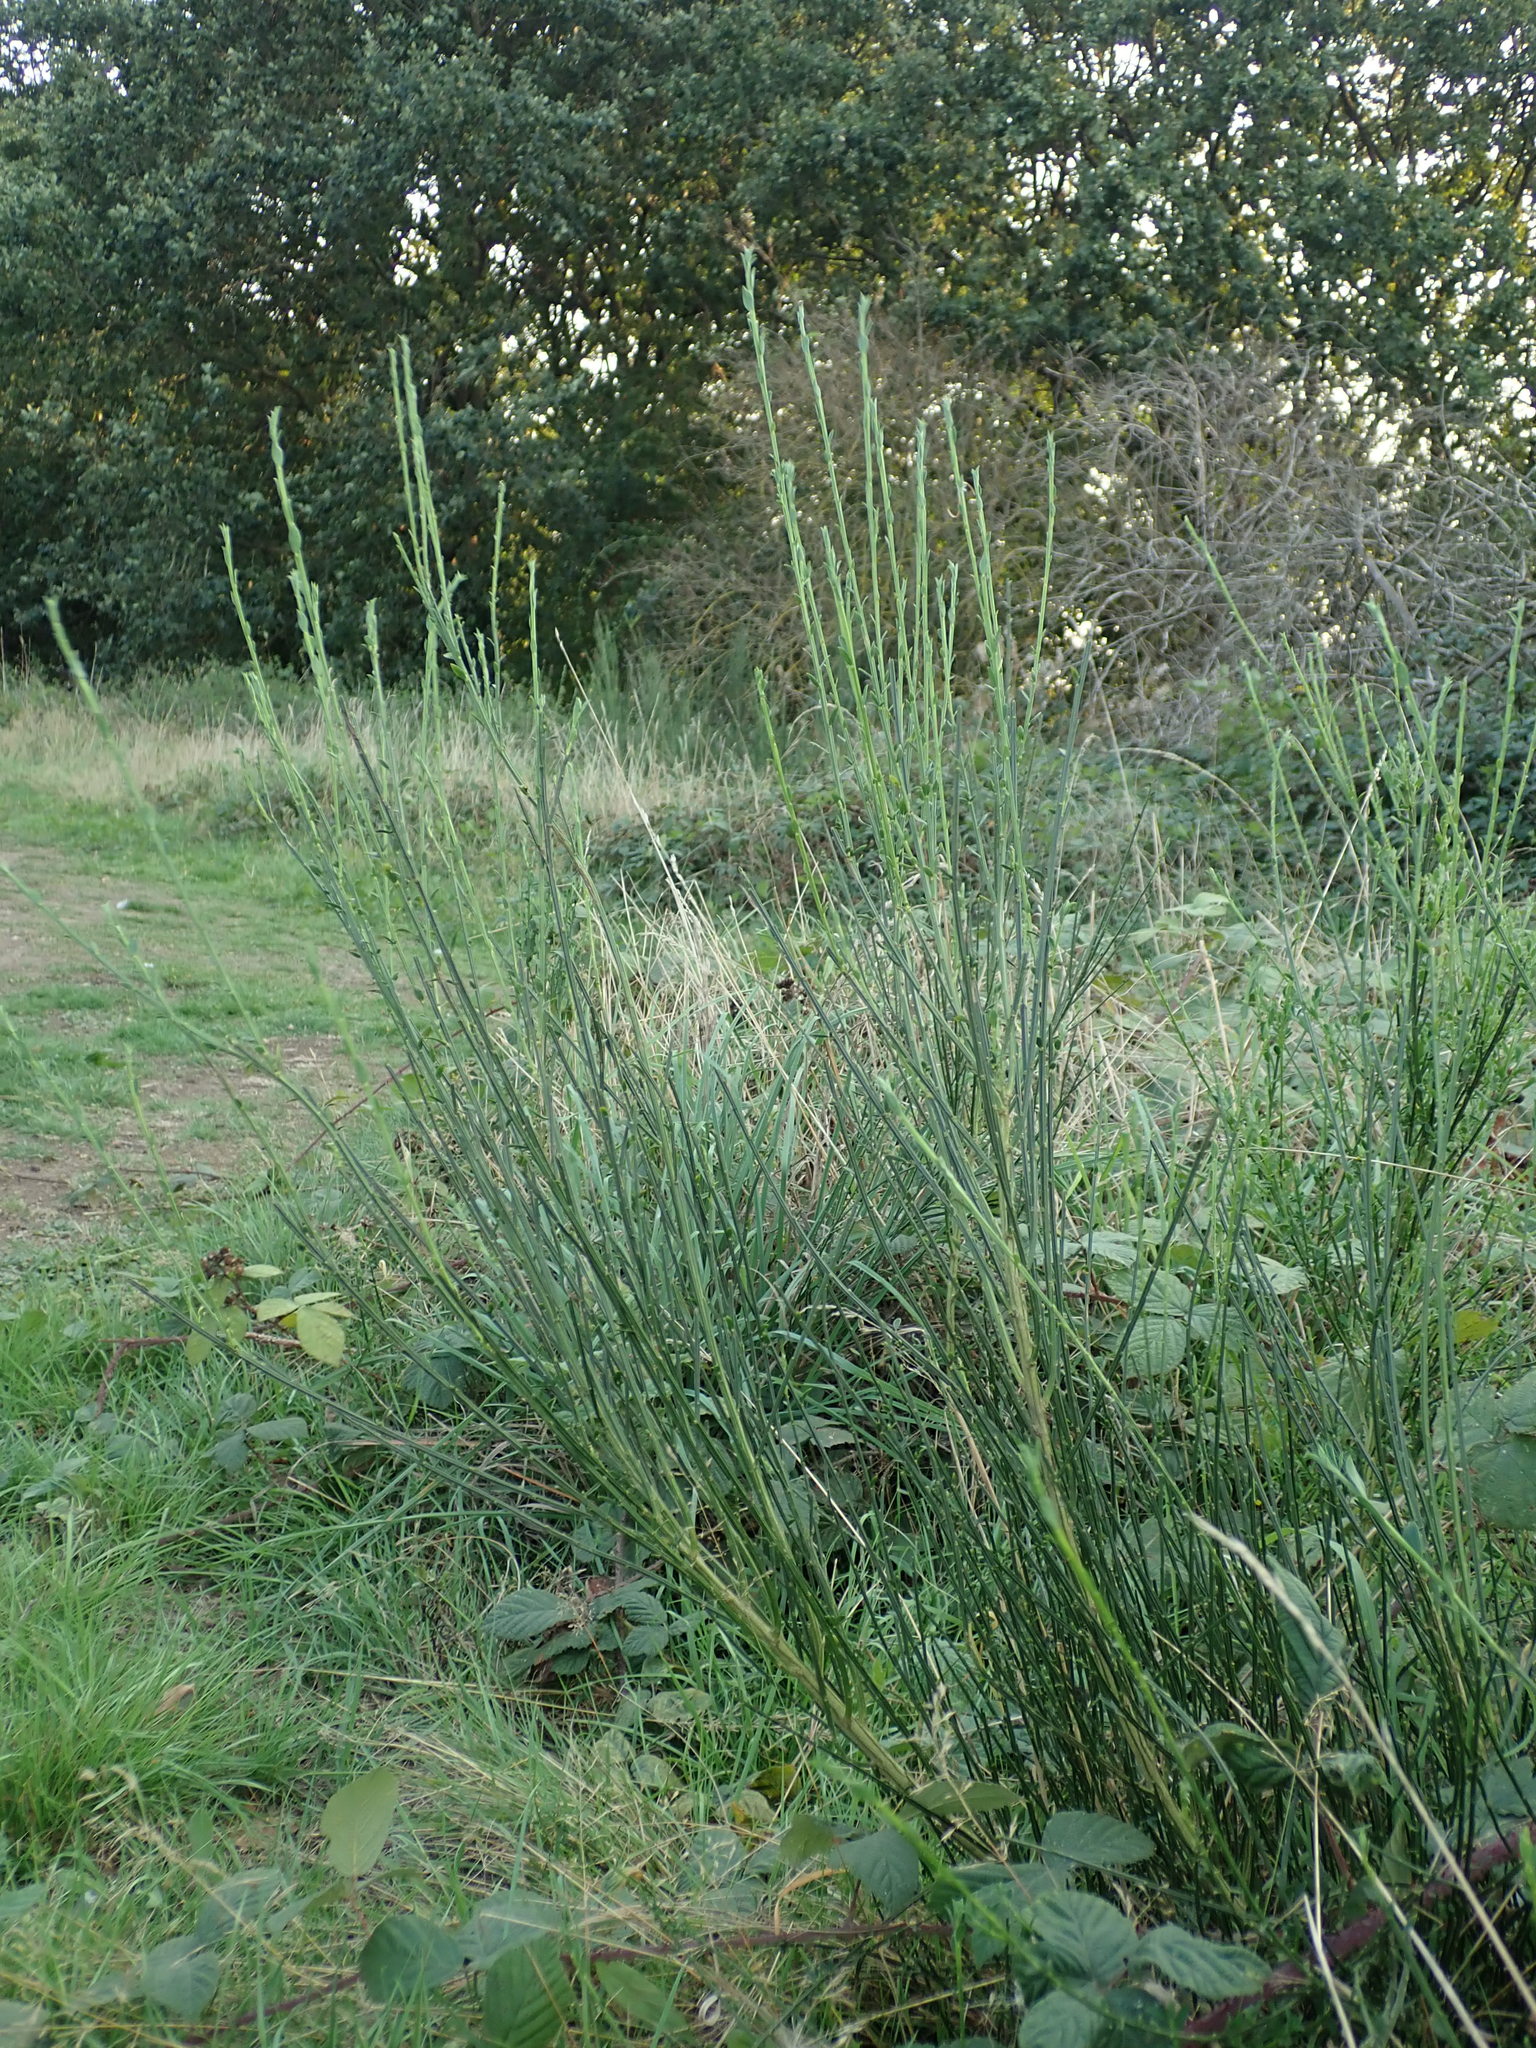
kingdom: Plantae
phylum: Tracheophyta
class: Magnoliopsida
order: Fabales
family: Fabaceae
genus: Cytisus
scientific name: Cytisus scoparius
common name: Scotch broom
